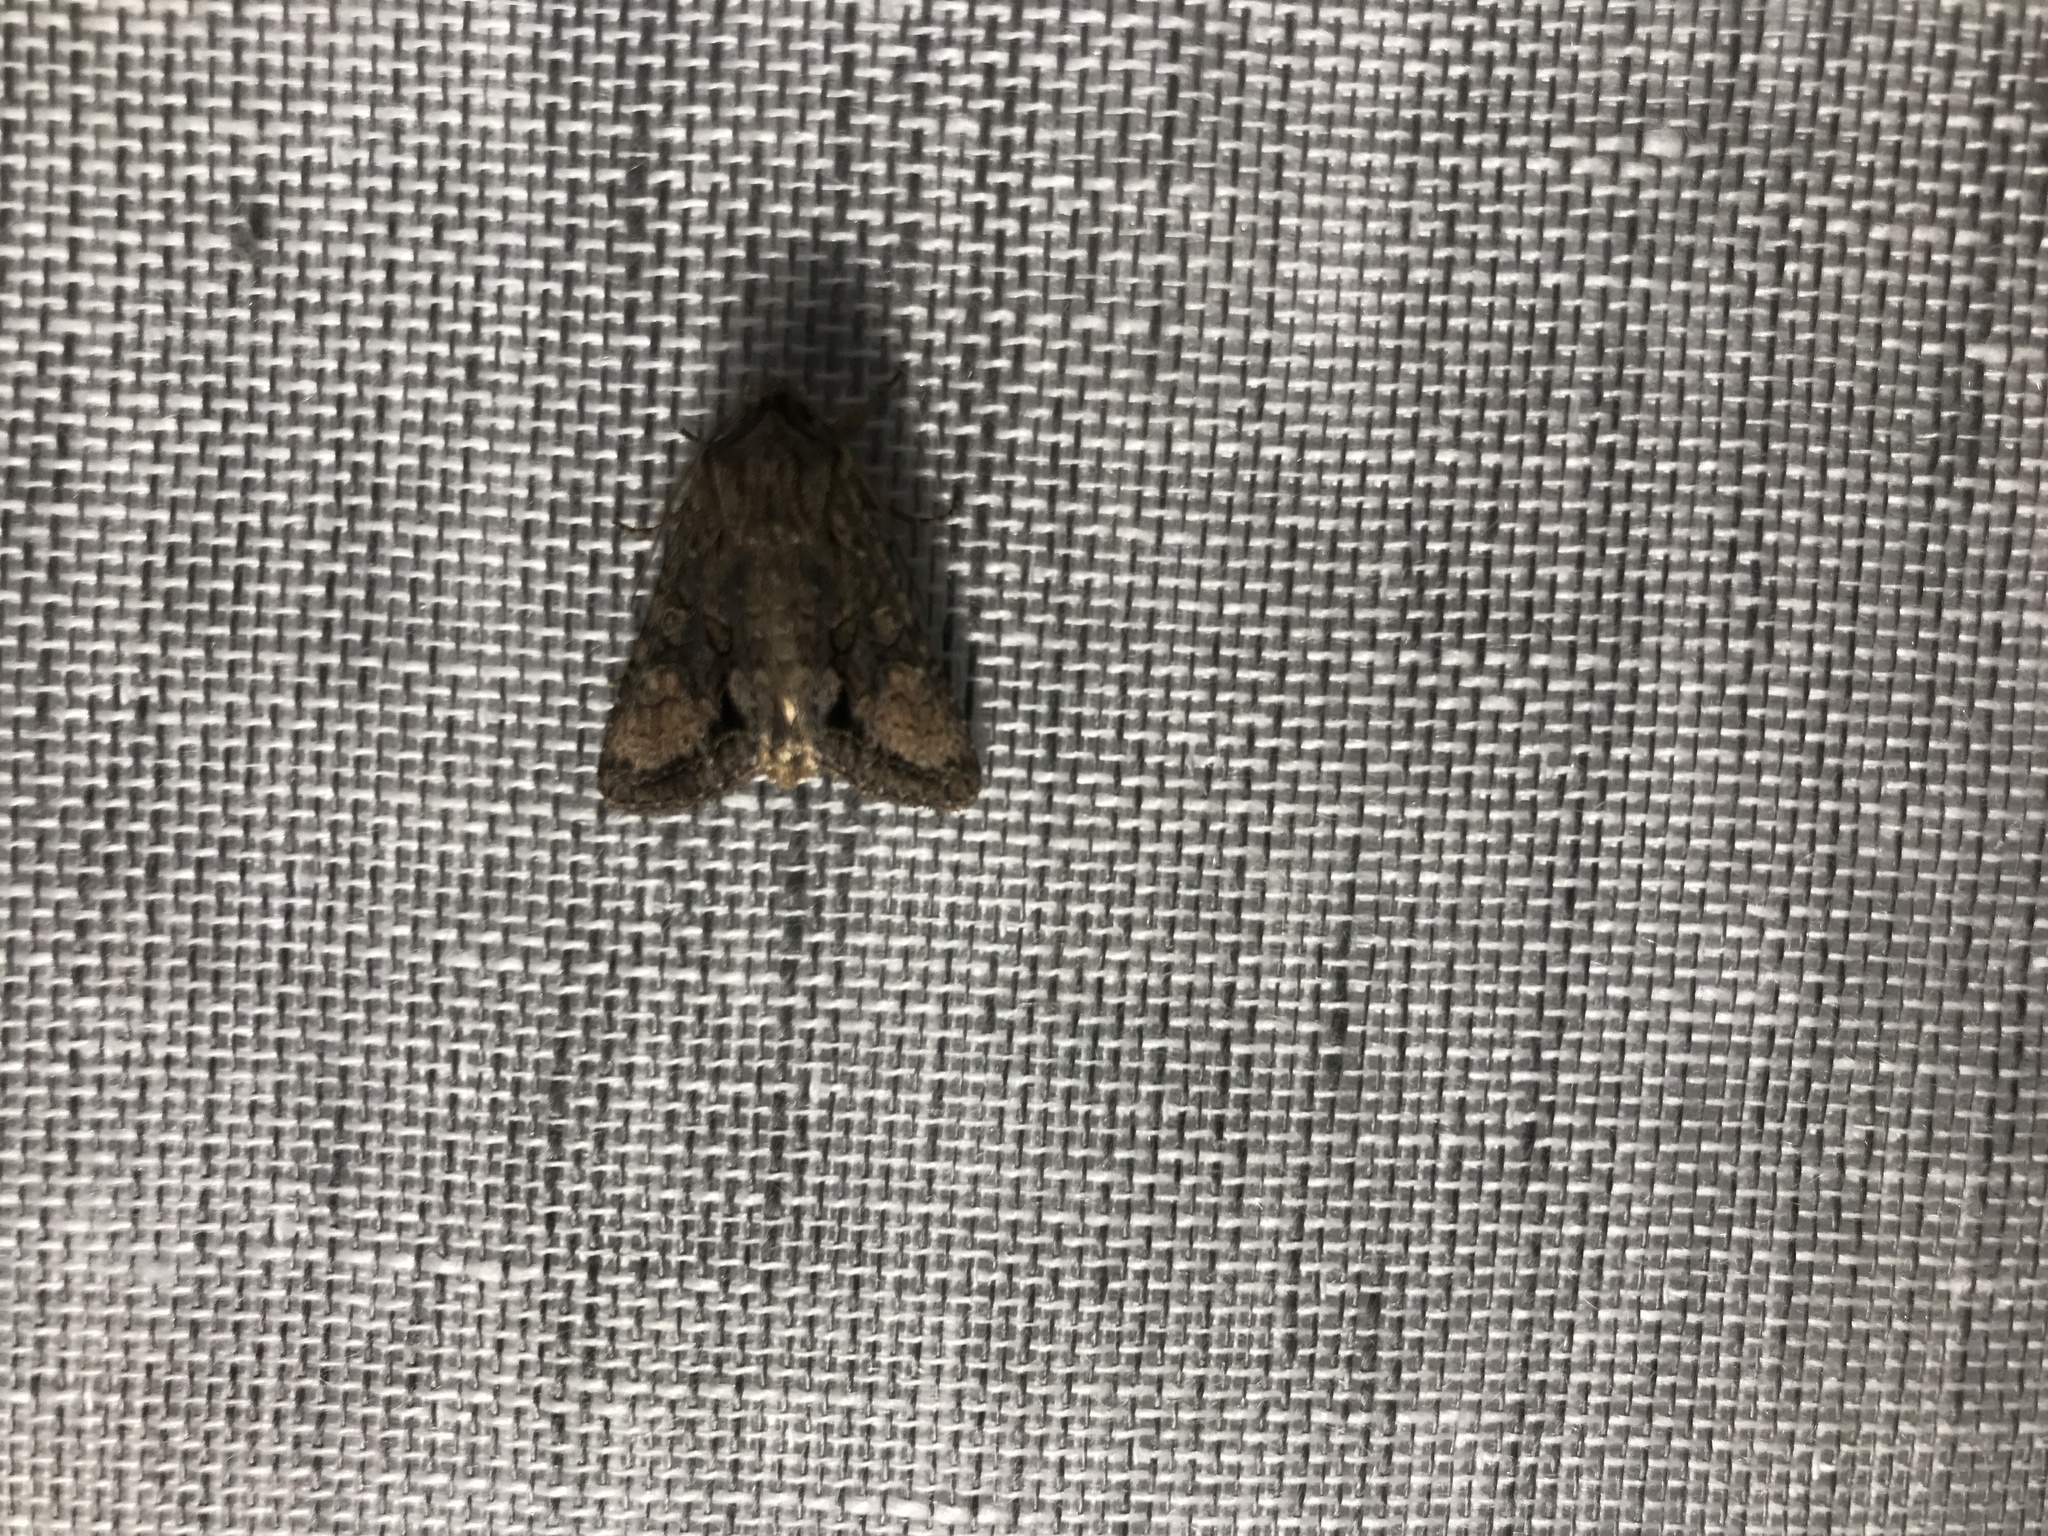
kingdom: Animalia
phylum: Arthropoda
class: Insecta
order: Lepidoptera
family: Noctuidae
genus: Ichneutica
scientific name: Ichneutica mutans
